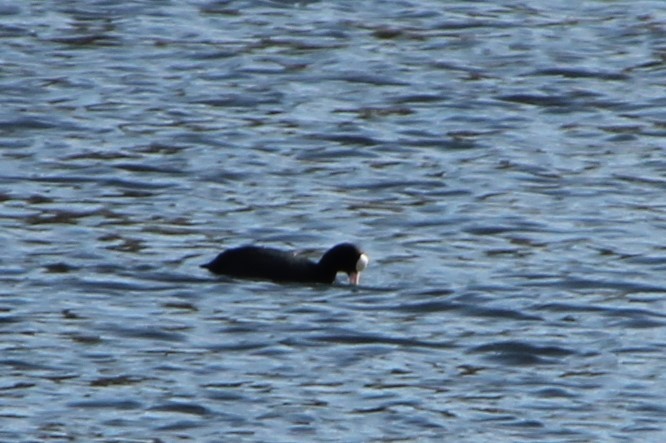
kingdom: Animalia
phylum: Chordata
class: Aves
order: Gruiformes
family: Rallidae
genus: Fulica
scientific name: Fulica atra
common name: Eurasian coot
